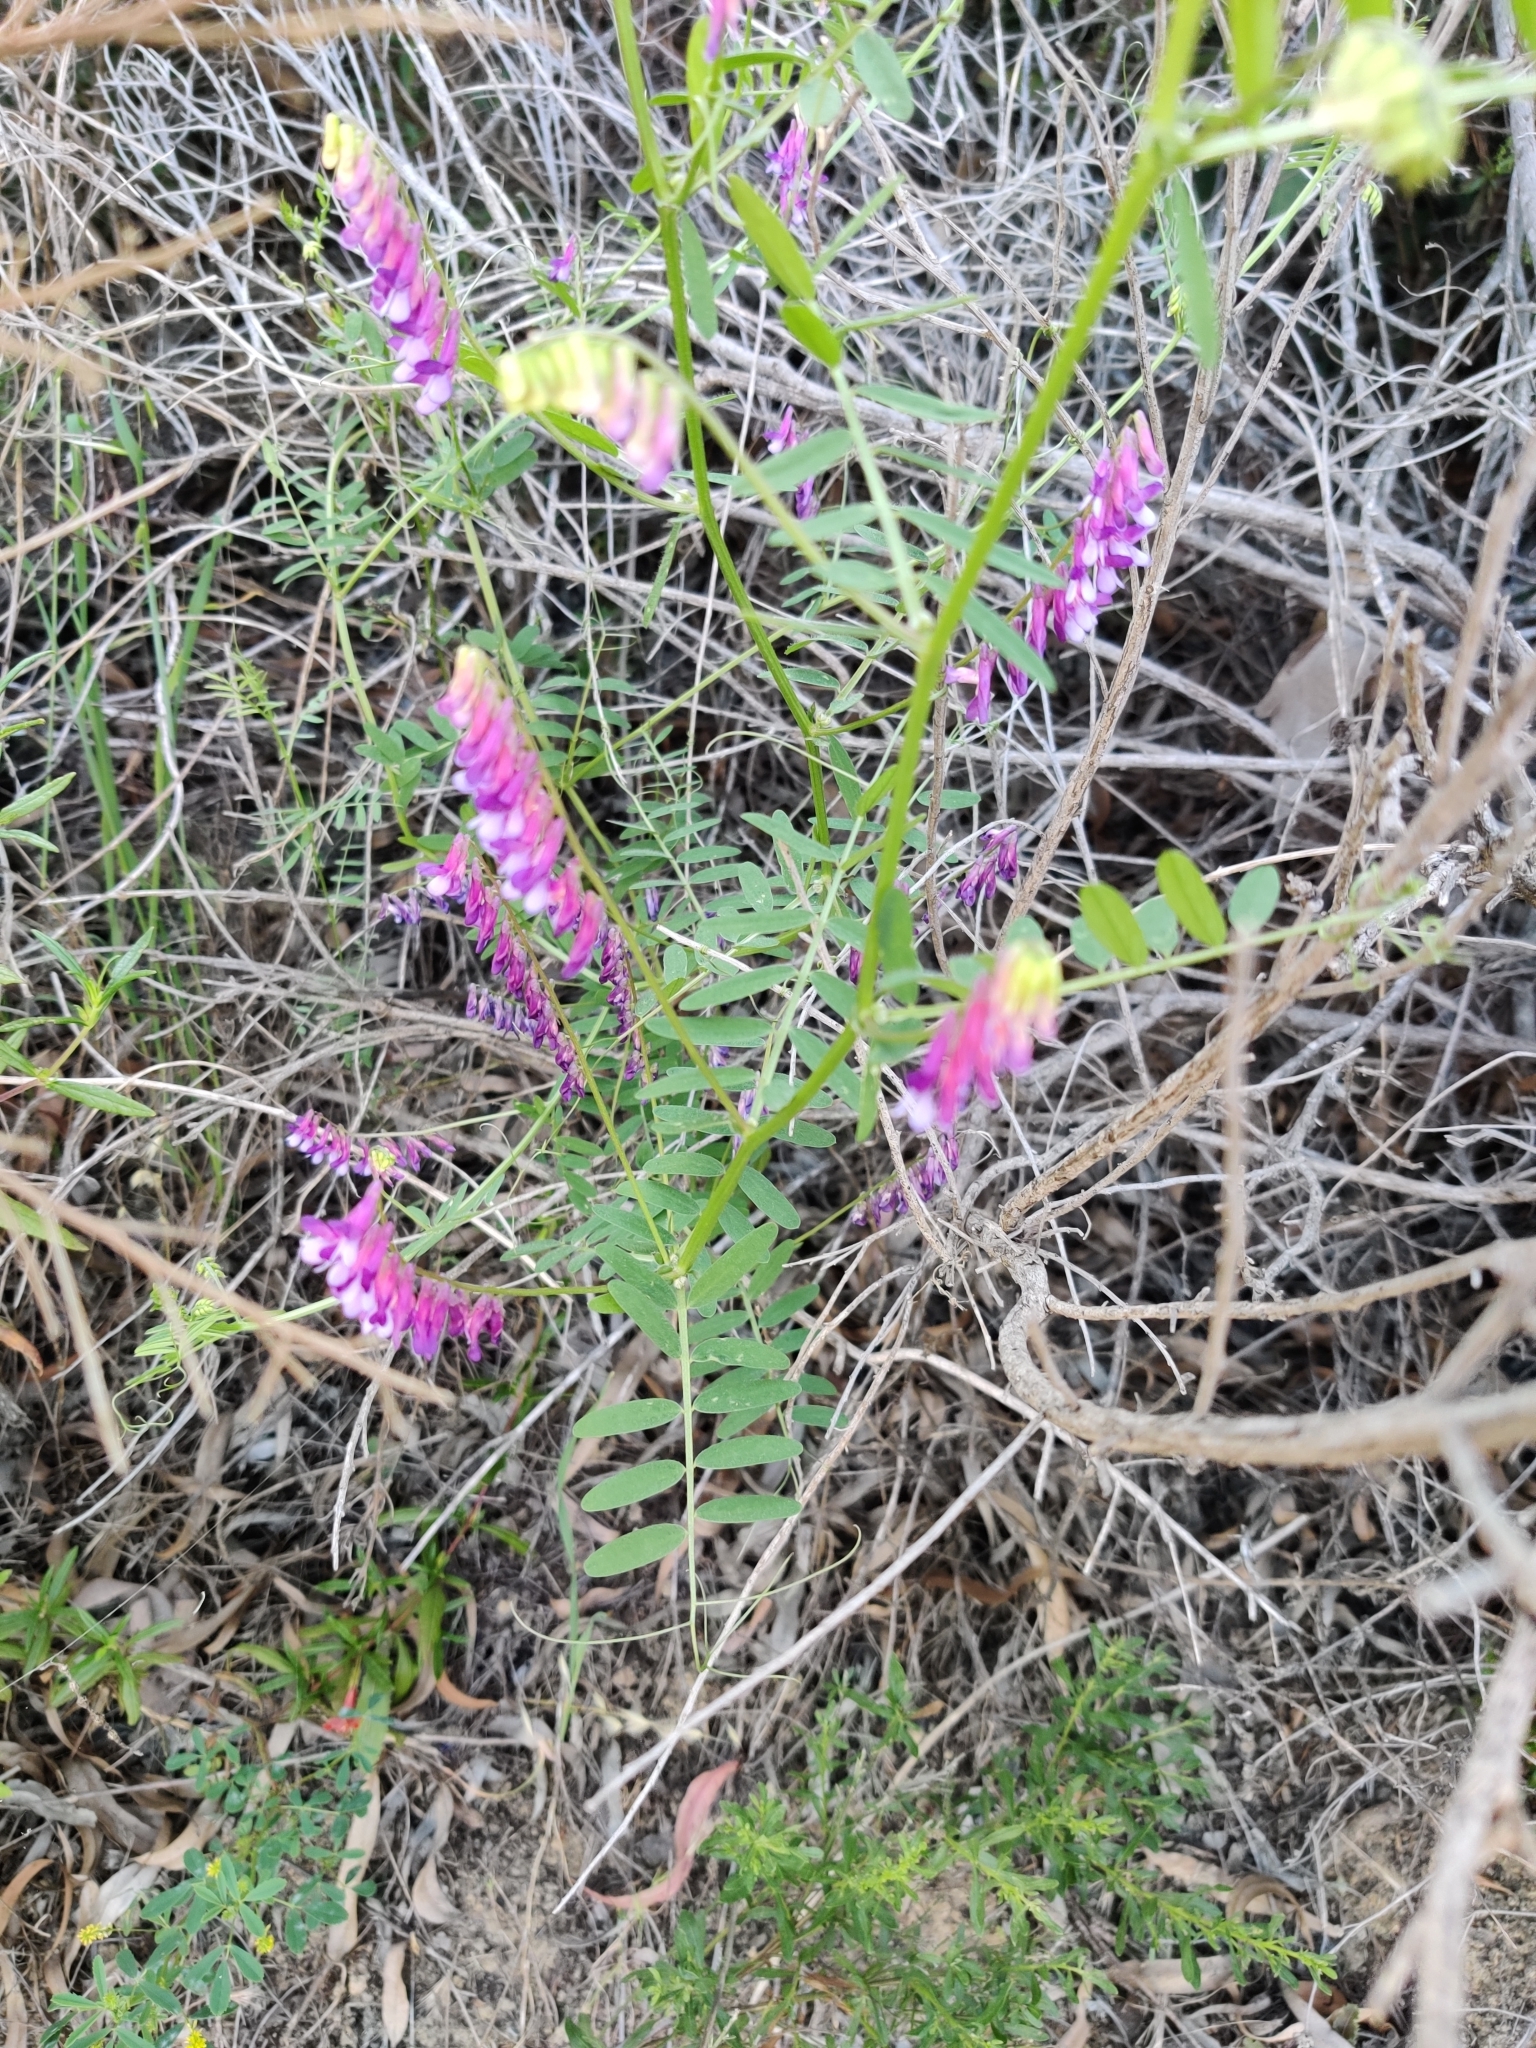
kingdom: Plantae
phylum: Tracheophyta
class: Magnoliopsida
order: Fabales
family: Fabaceae
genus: Vicia
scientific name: Vicia villosa
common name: Fodder vetch
